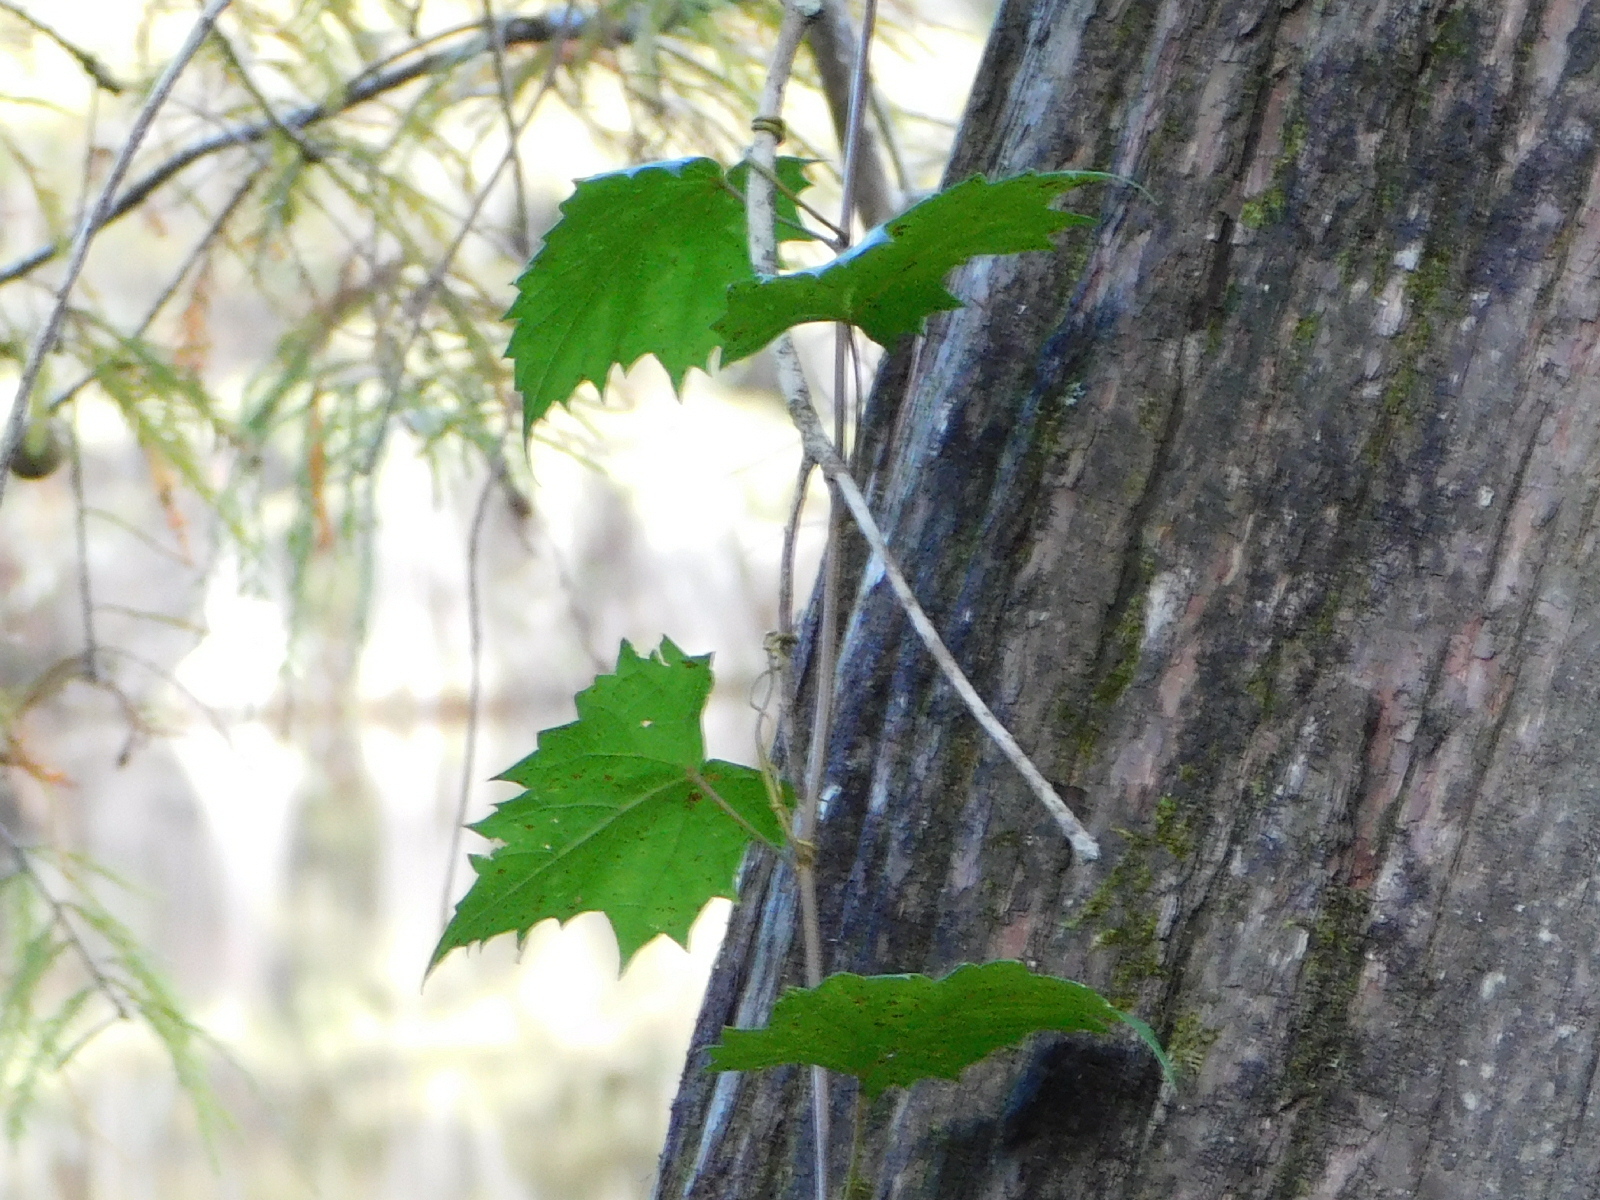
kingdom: Plantae
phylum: Tracheophyta
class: Magnoliopsida
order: Vitales
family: Vitaceae
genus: Vitis
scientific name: Vitis riparia
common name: Frost grape
